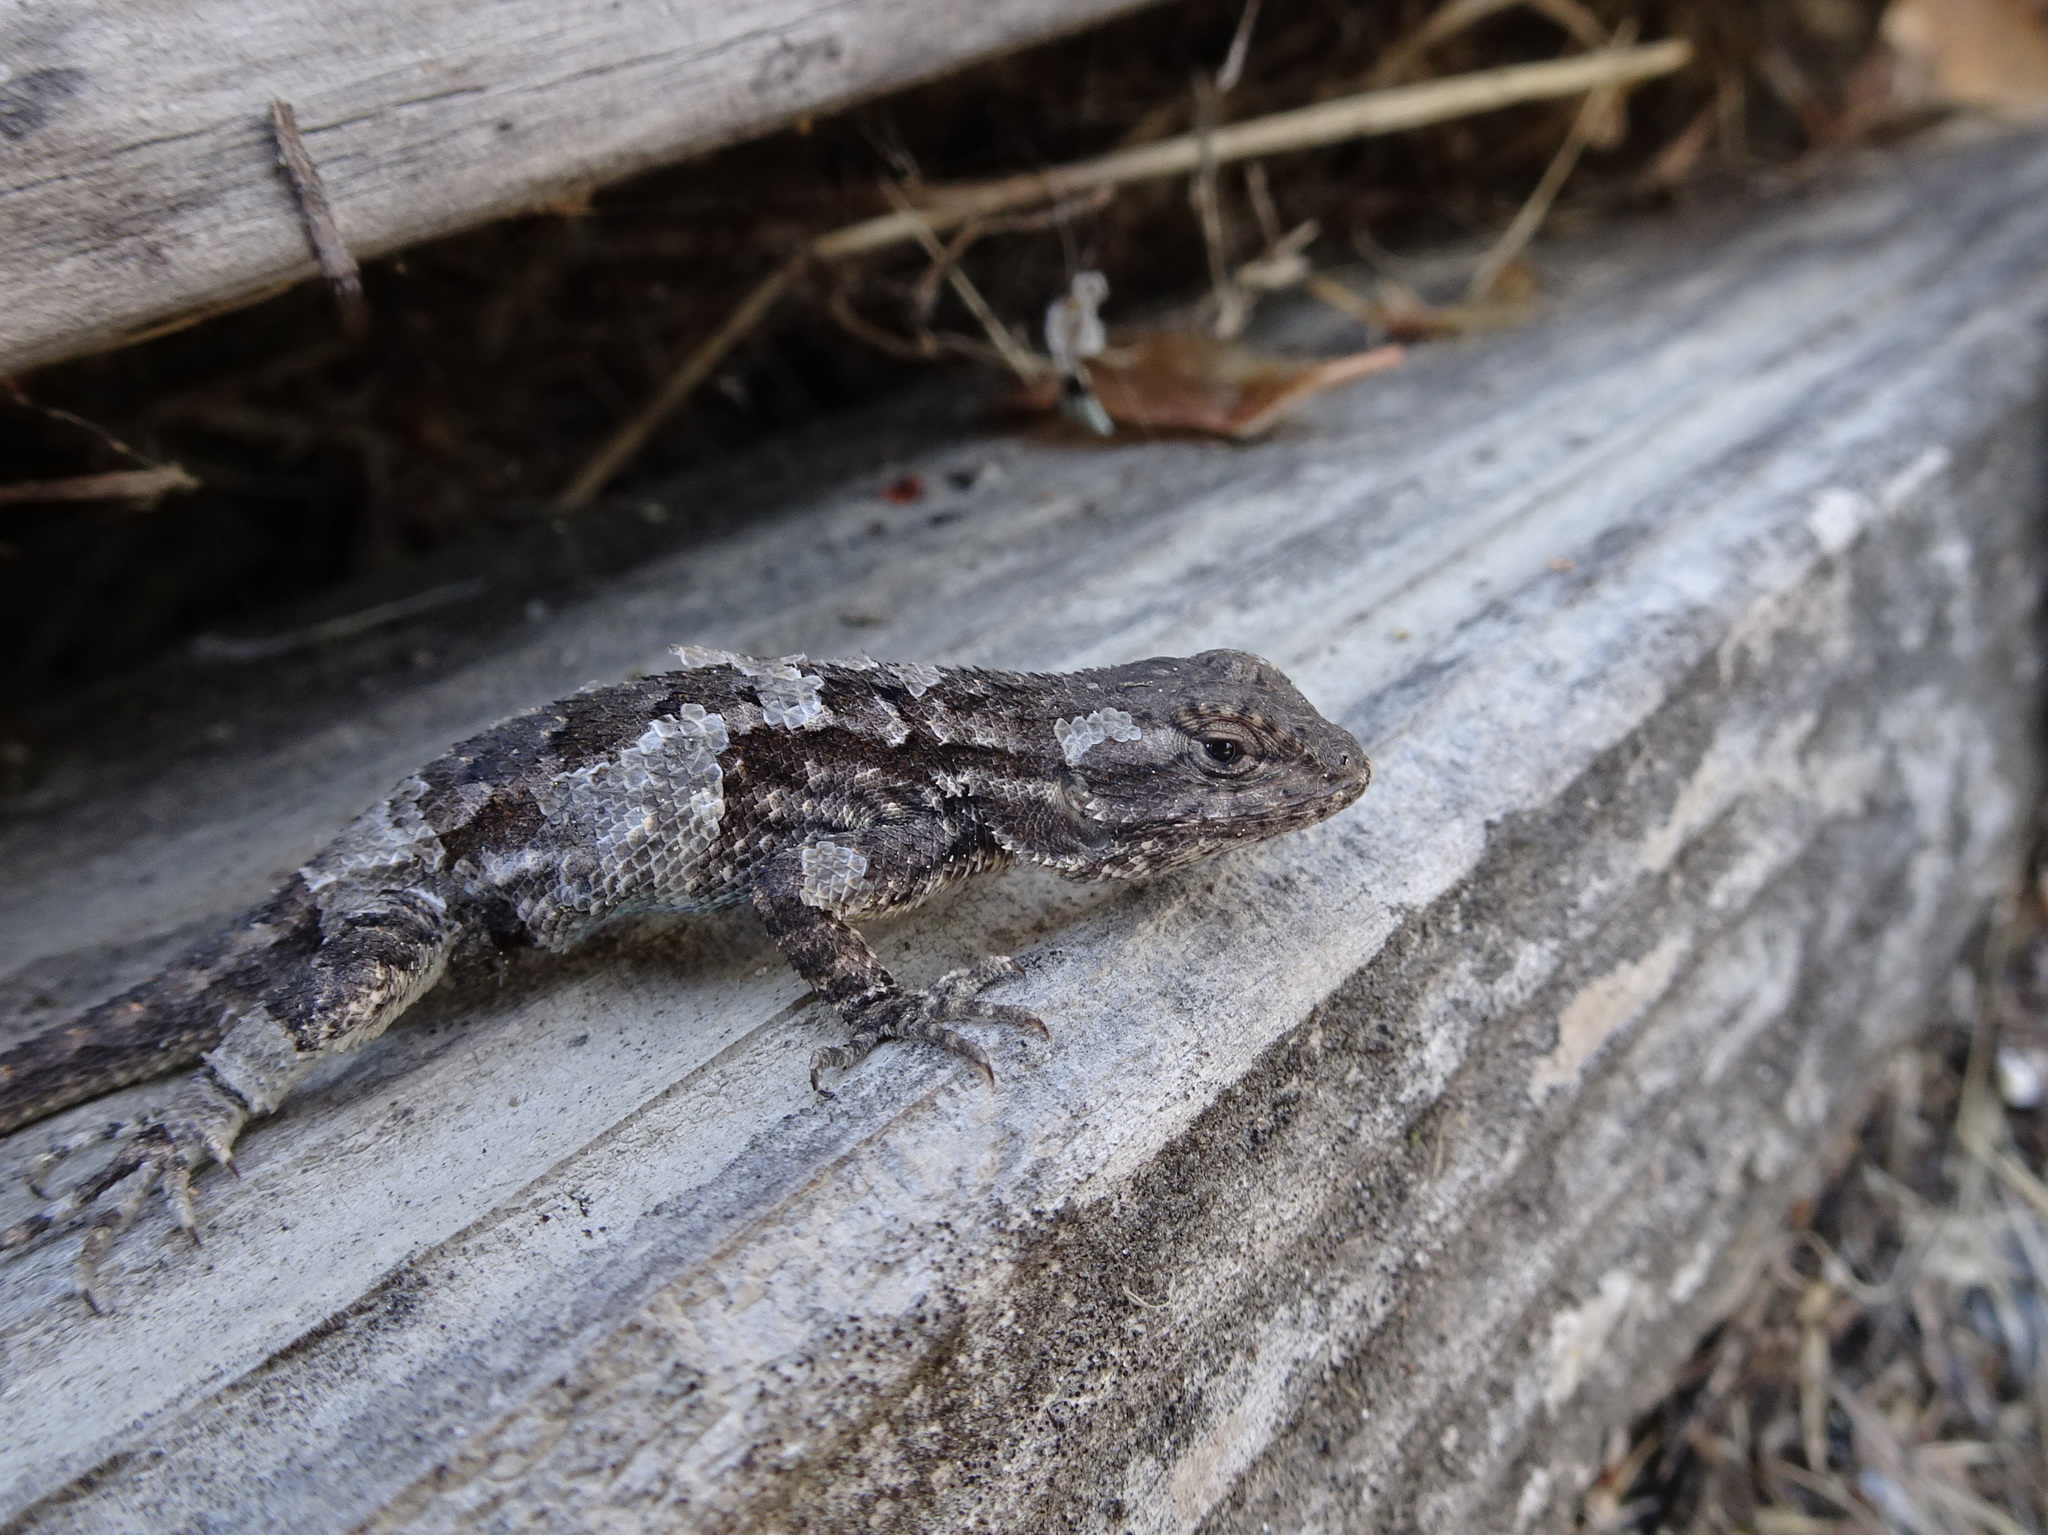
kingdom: Animalia
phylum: Chordata
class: Squamata
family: Phrynosomatidae
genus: Sceloporus
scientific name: Sceloporus occidentalis
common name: Western fence lizard
